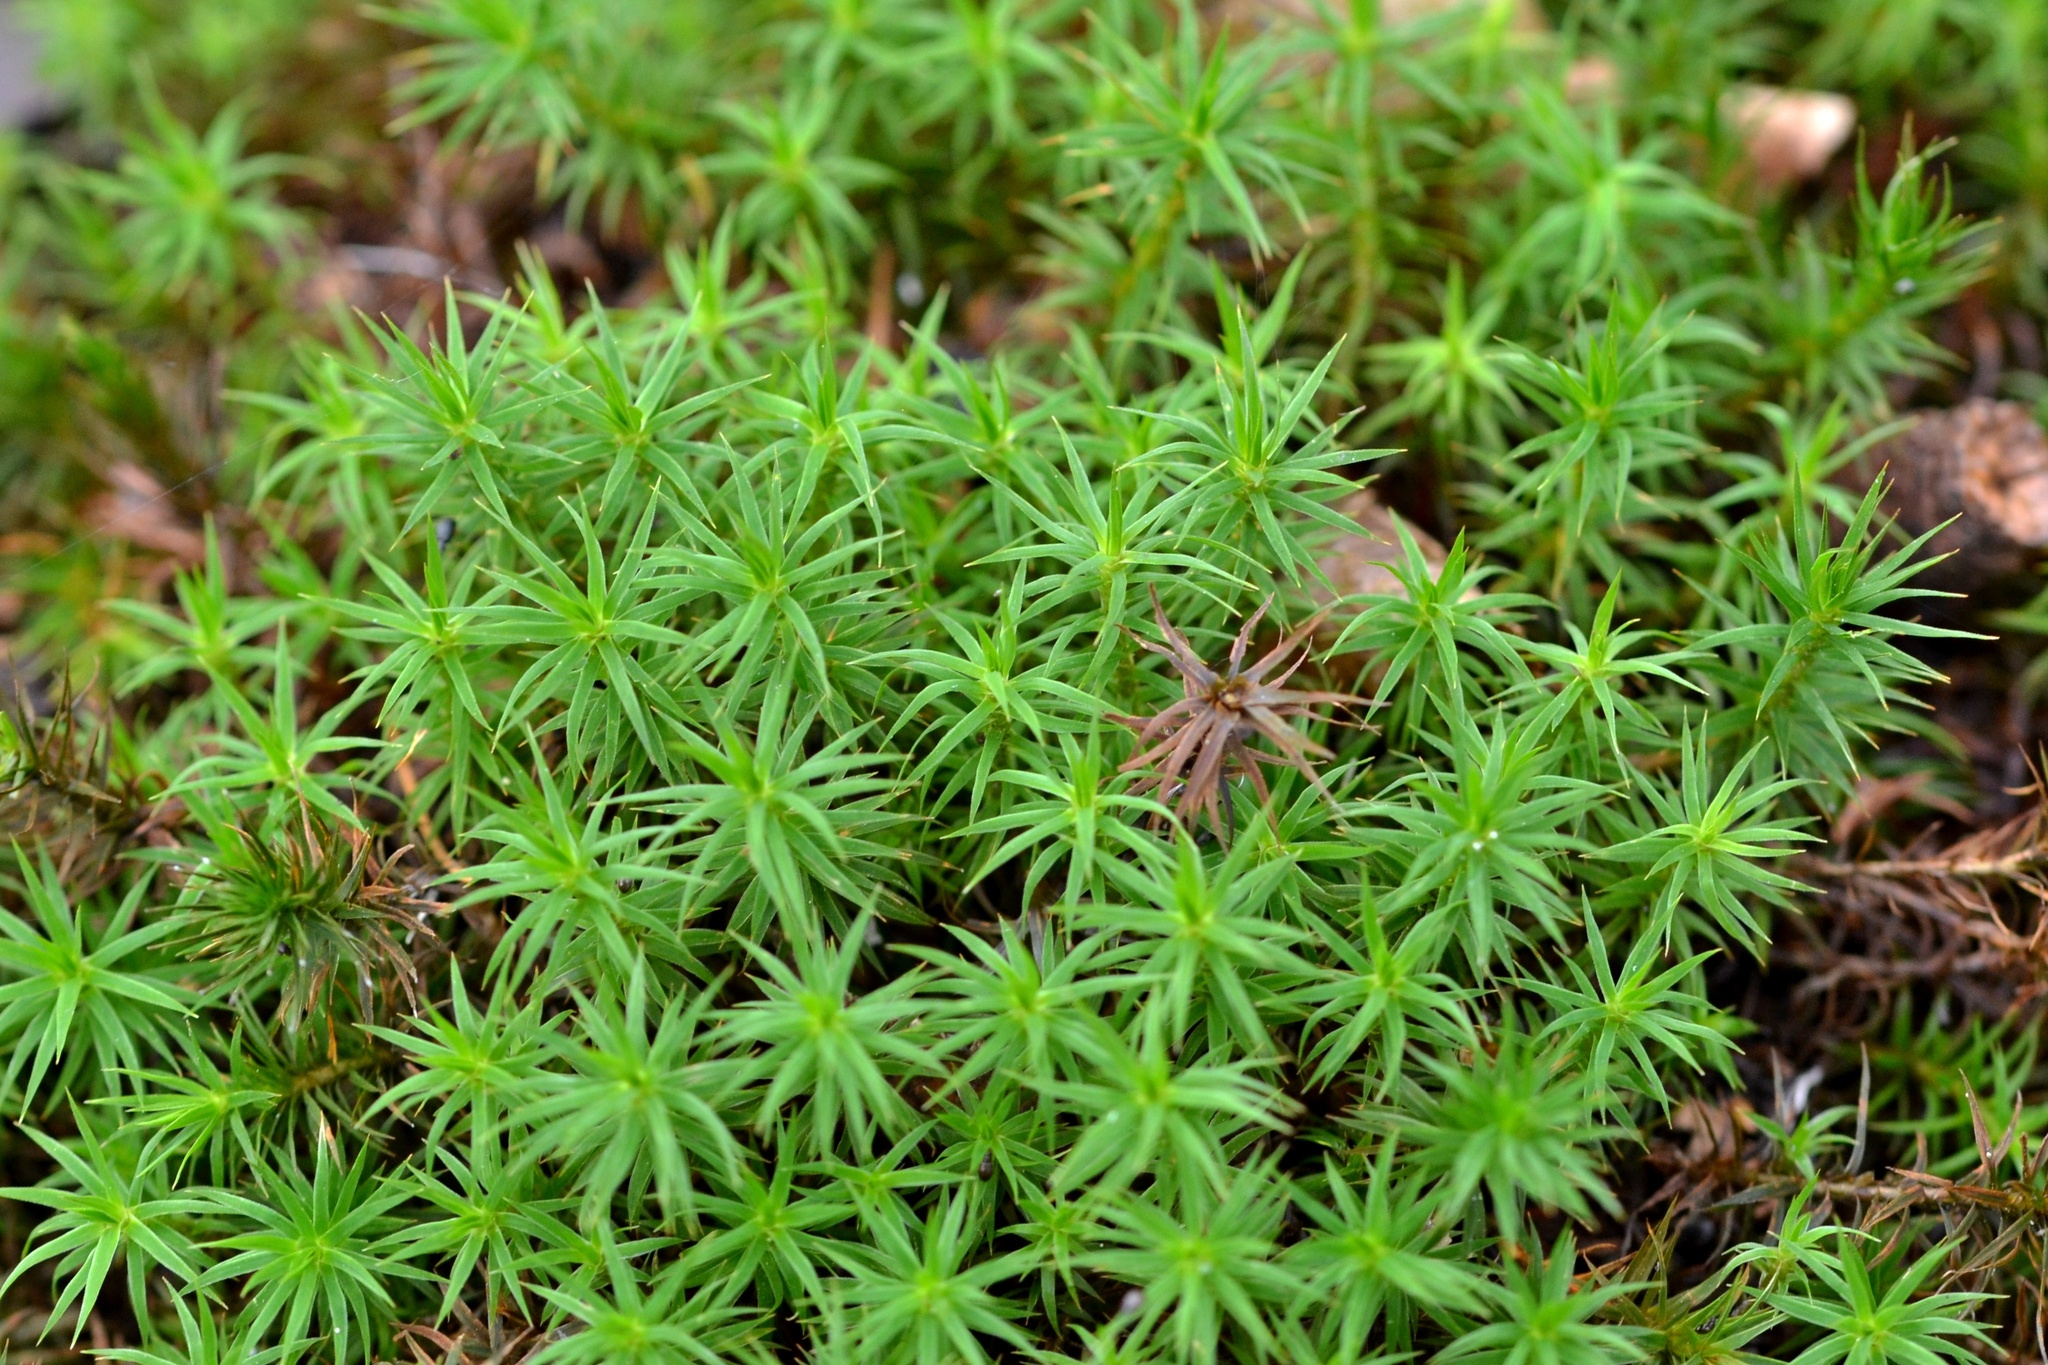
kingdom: Plantae
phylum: Bryophyta
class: Polytrichopsida
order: Polytrichales
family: Polytrichaceae
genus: Polytrichum
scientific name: Polytrichum formosum
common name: Bank haircap moss
